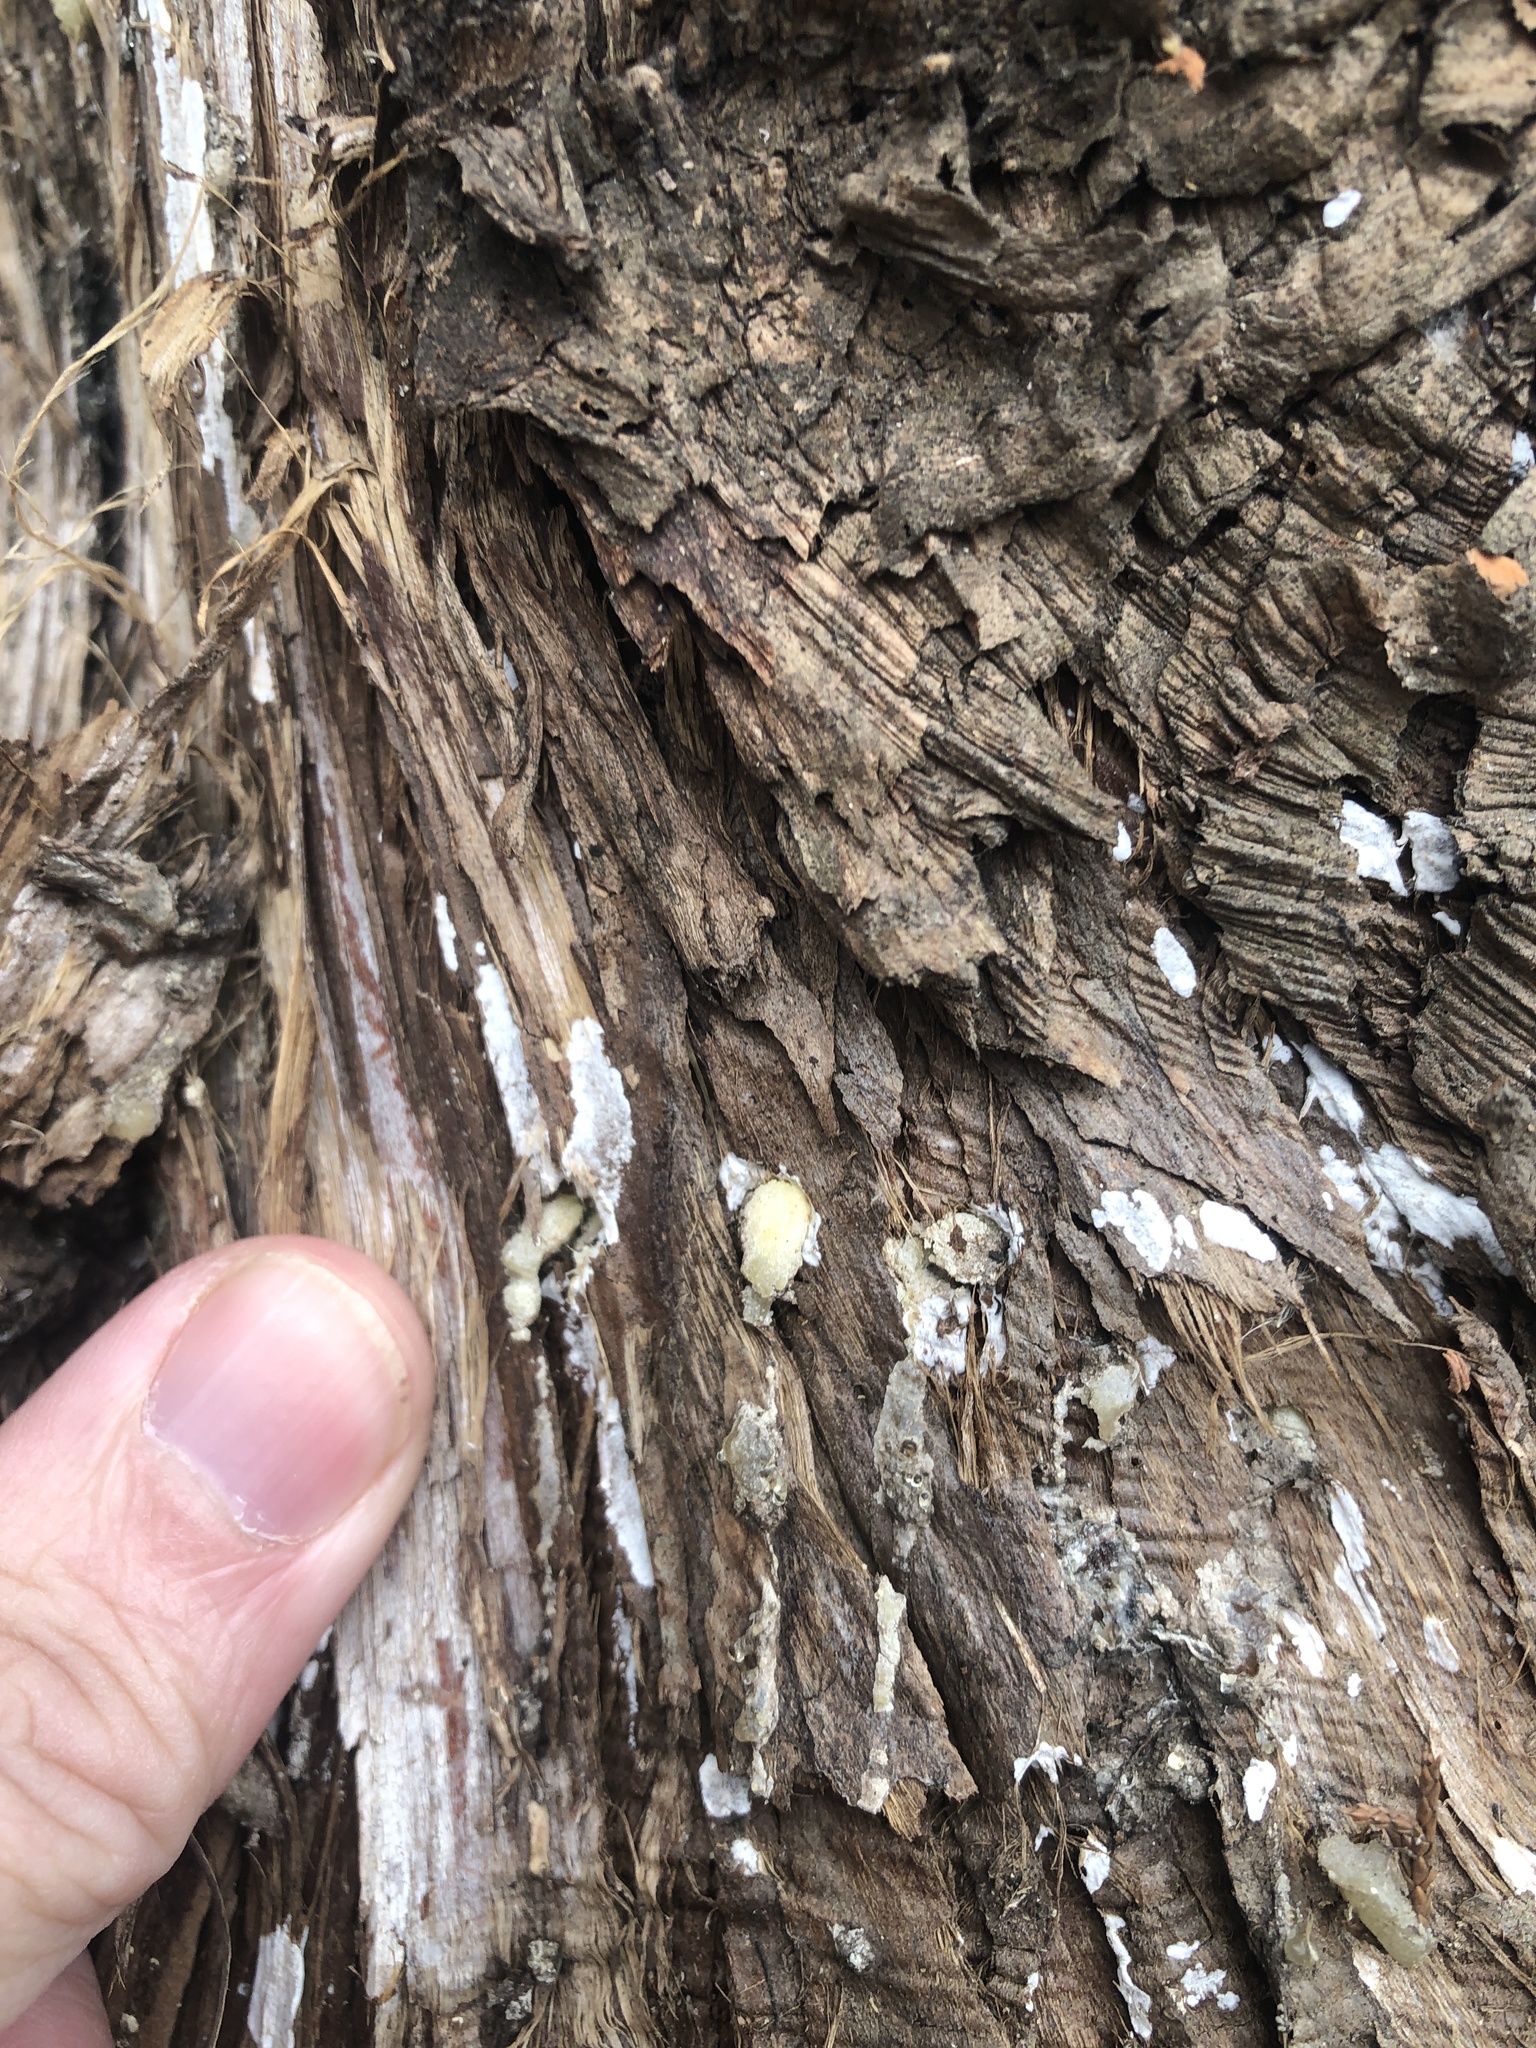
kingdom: Fungi
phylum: Basidiomycota
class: Agaricomycetes
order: Agaricales
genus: Dendrothele
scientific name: Dendrothele nivosa
